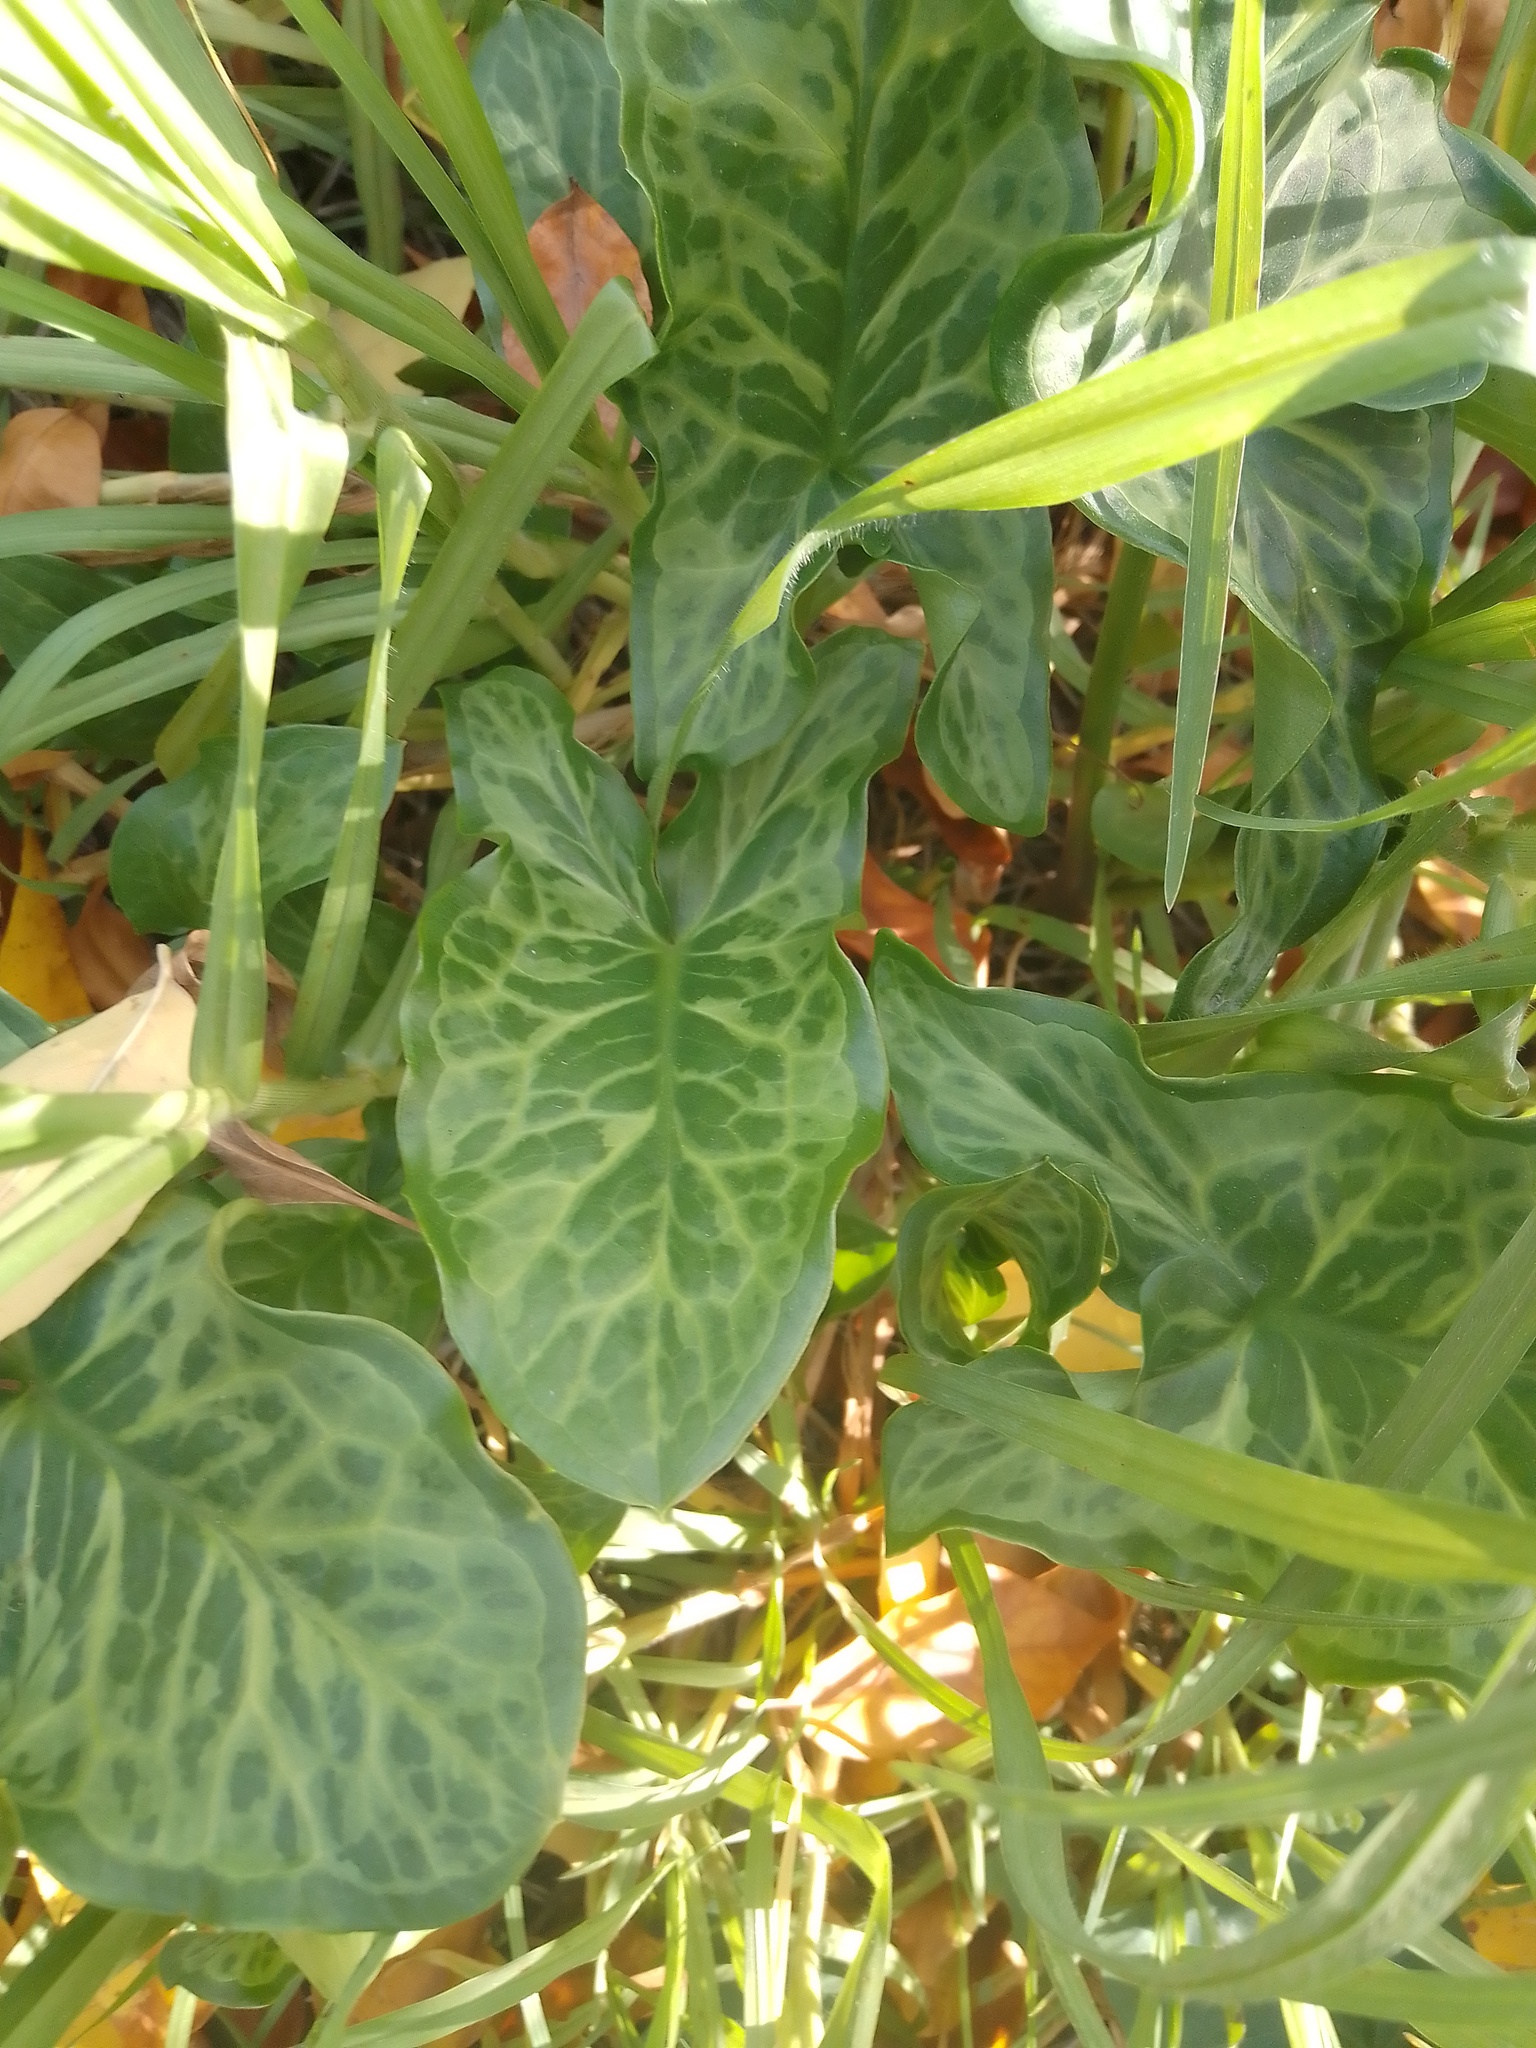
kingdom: Plantae
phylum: Tracheophyta
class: Liliopsida
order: Alismatales
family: Araceae
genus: Arum
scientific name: Arum italicum
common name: Italian lords-and-ladies
